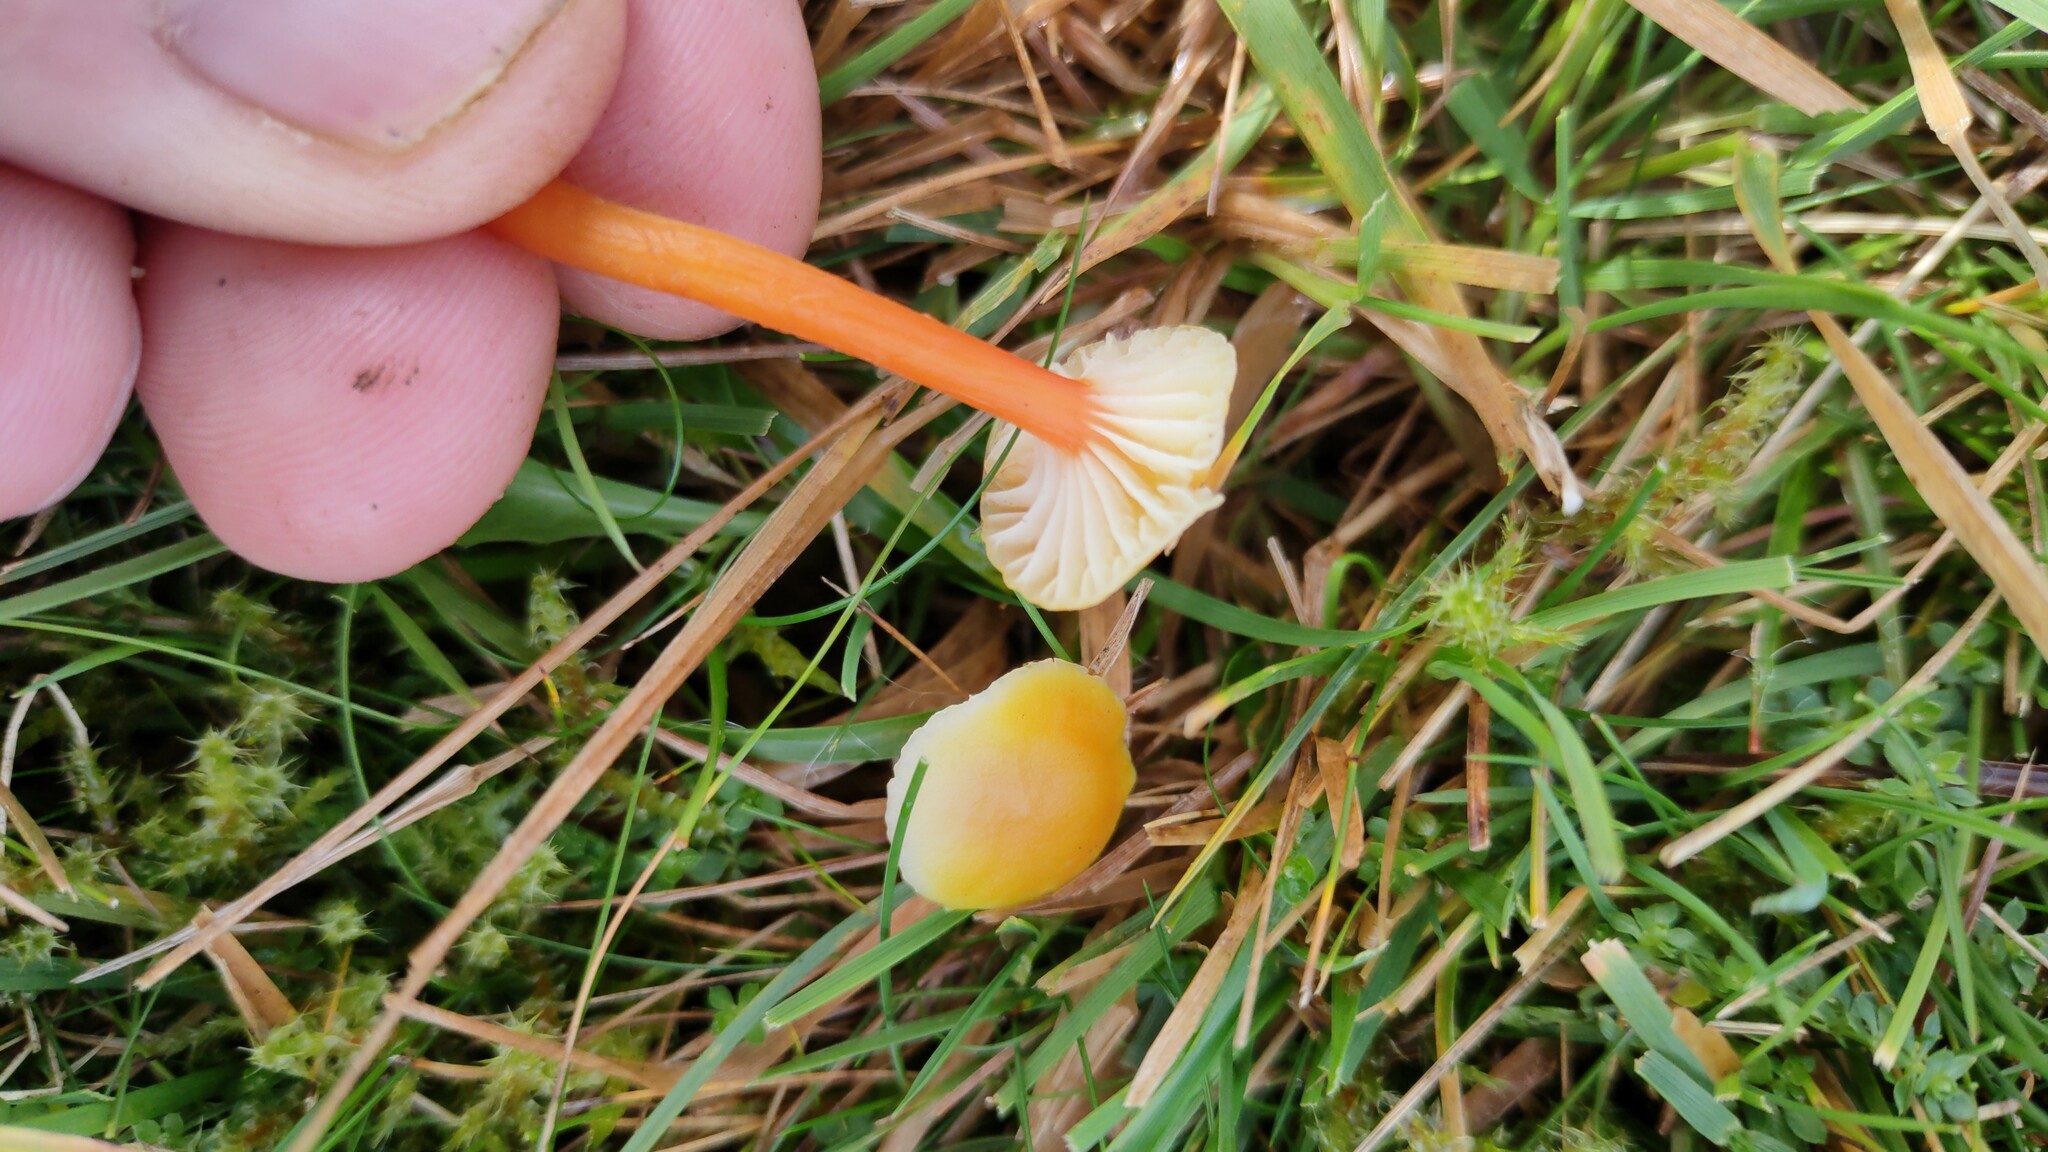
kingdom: Fungi
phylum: Basidiomycota
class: Agaricomycetes
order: Agaricales
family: Hygrophoraceae
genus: Hygrocybe
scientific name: Hygrocybe lepida
